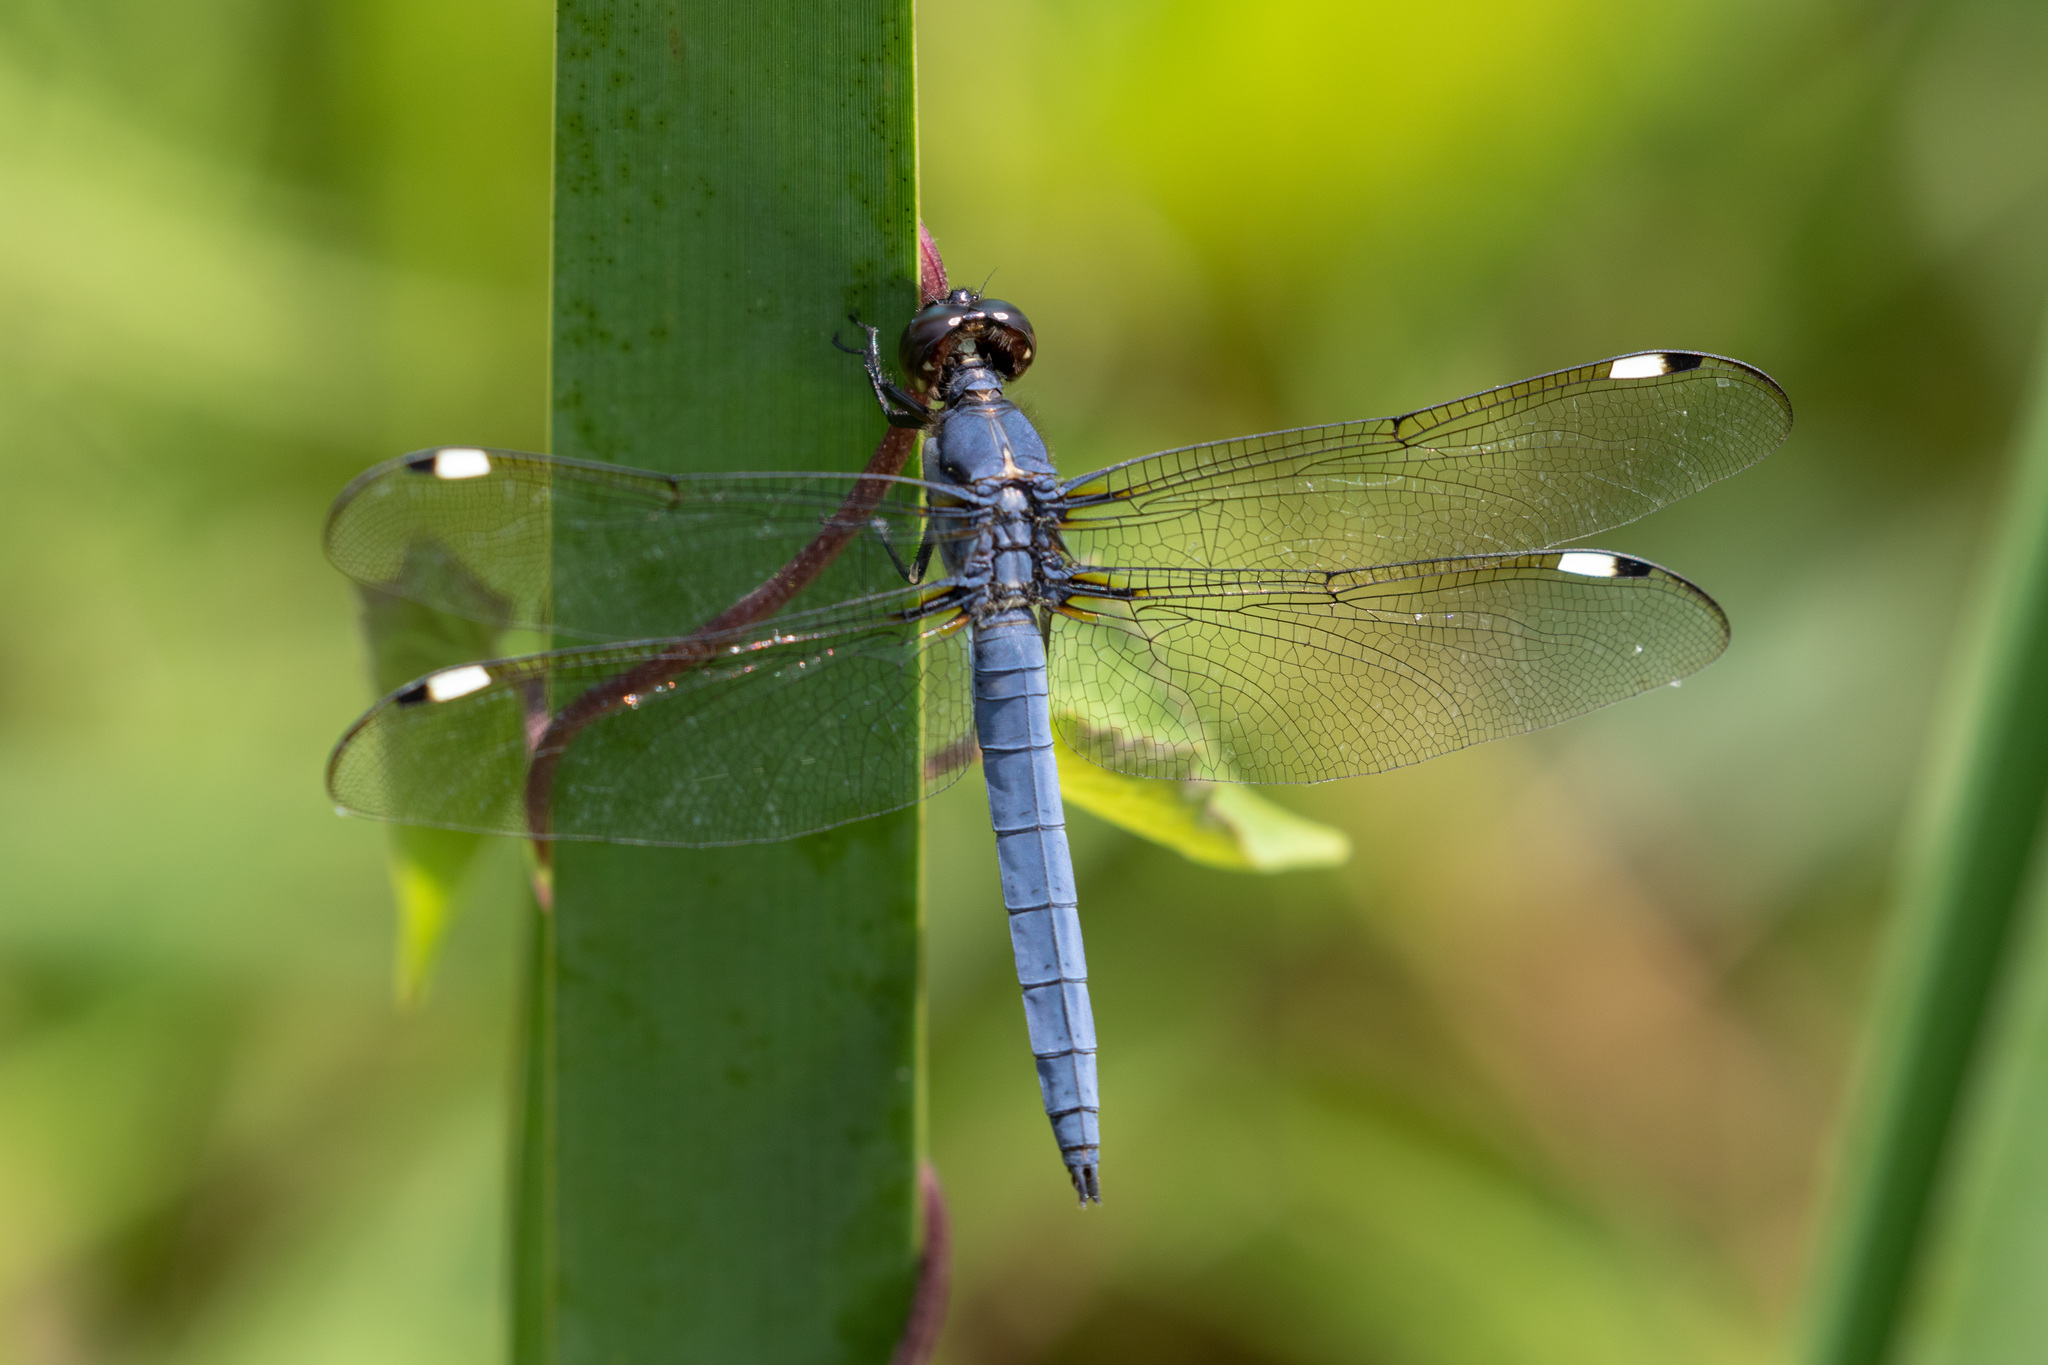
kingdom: Animalia
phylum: Arthropoda
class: Insecta
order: Odonata
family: Libellulidae
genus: Libellula
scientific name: Libellula cyanea
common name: Spangled skimmer
